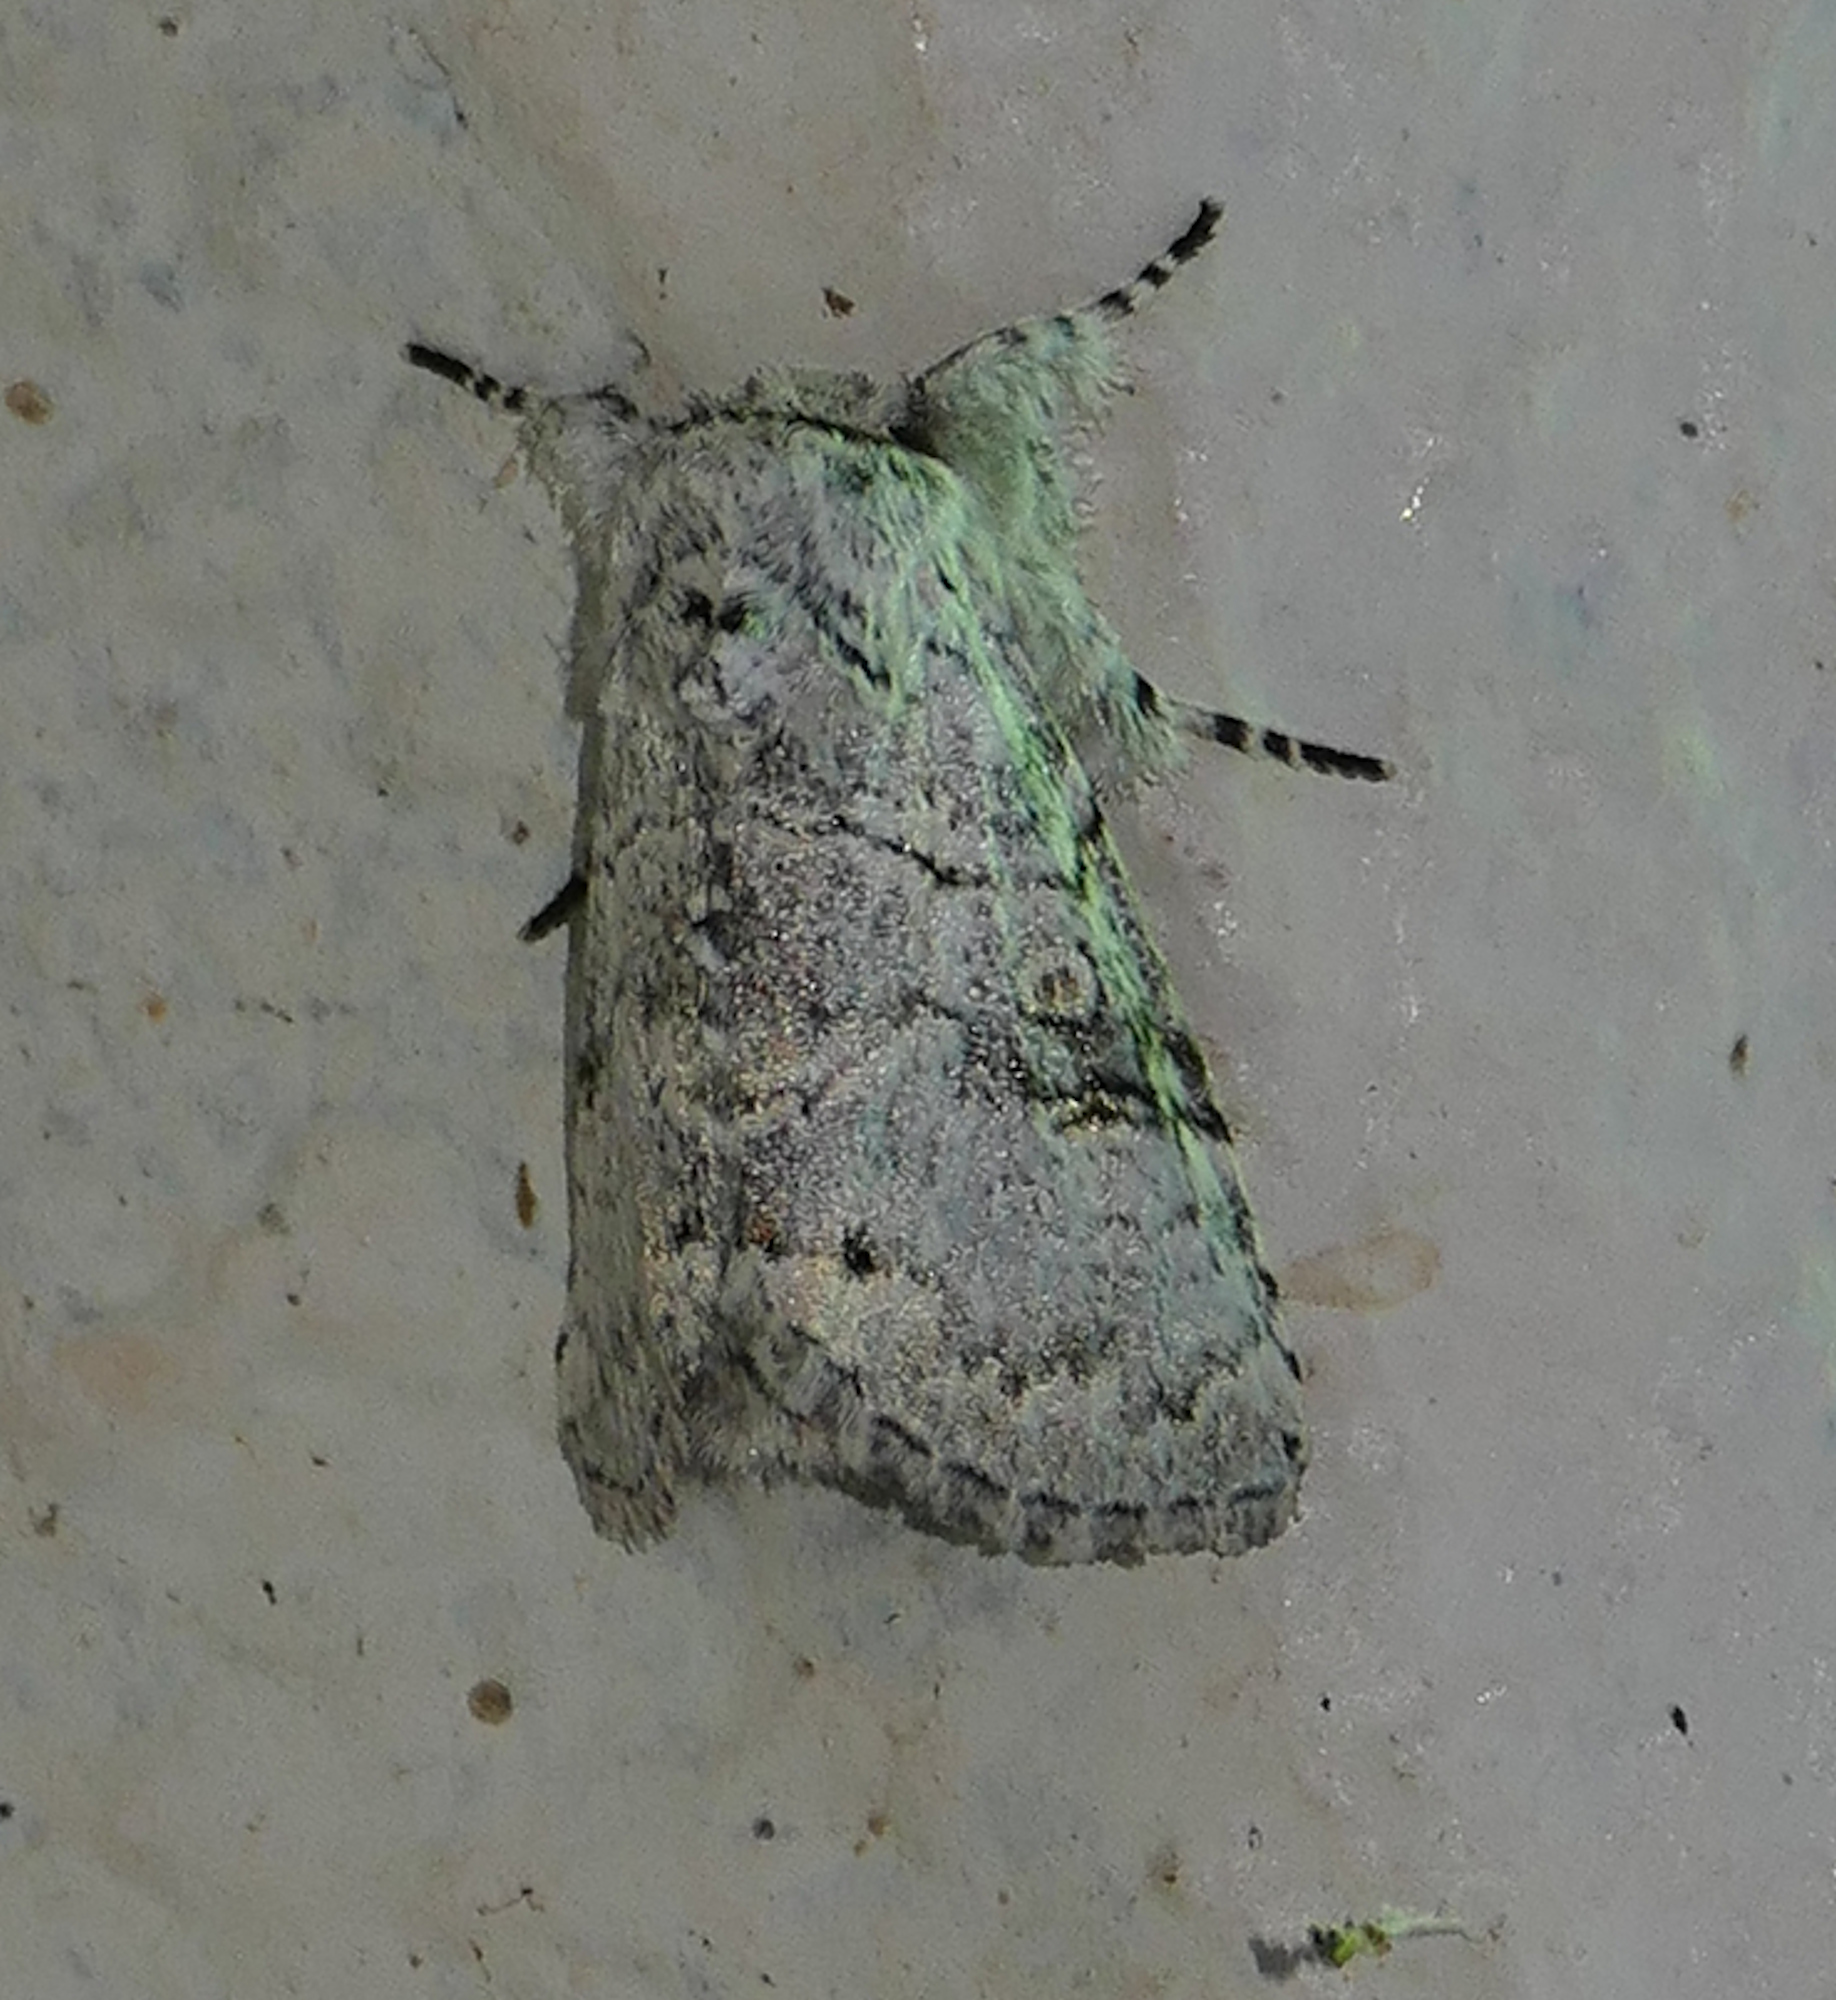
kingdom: Animalia
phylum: Arthropoda
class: Insecta
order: Lepidoptera
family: Noctuidae
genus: Charadra
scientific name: Charadra dispulsa
